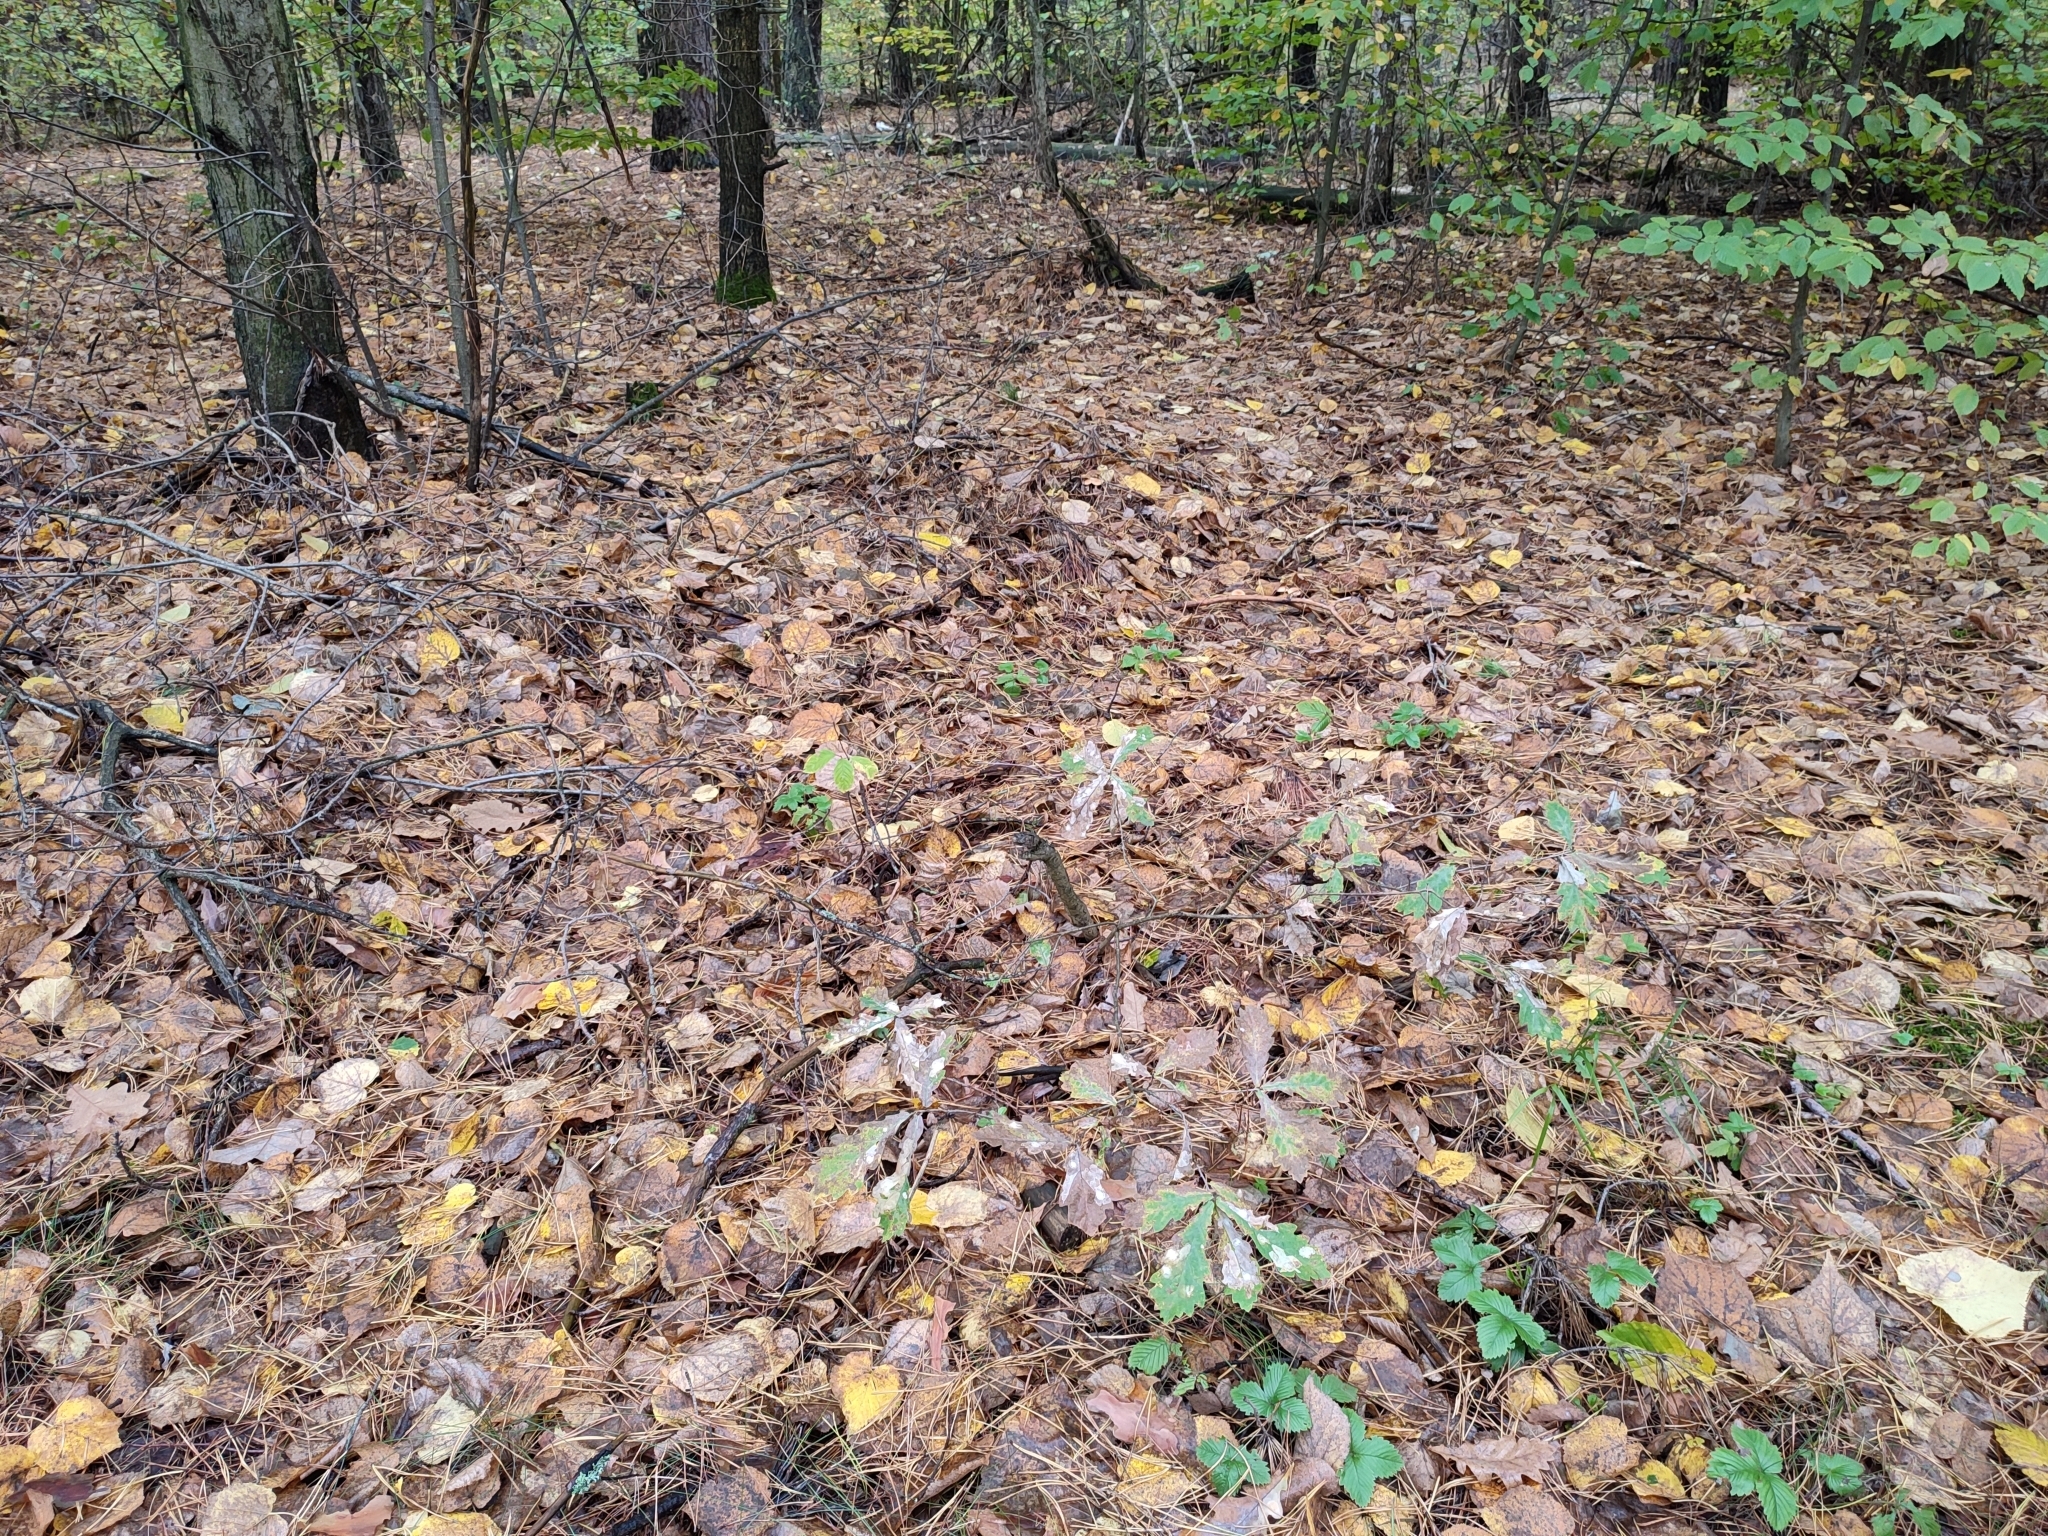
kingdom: Plantae
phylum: Tracheophyta
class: Magnoliopsida
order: Fagales
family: Fagaceae
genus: Quercus
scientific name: Quercus robur
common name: Pedunculate oak
